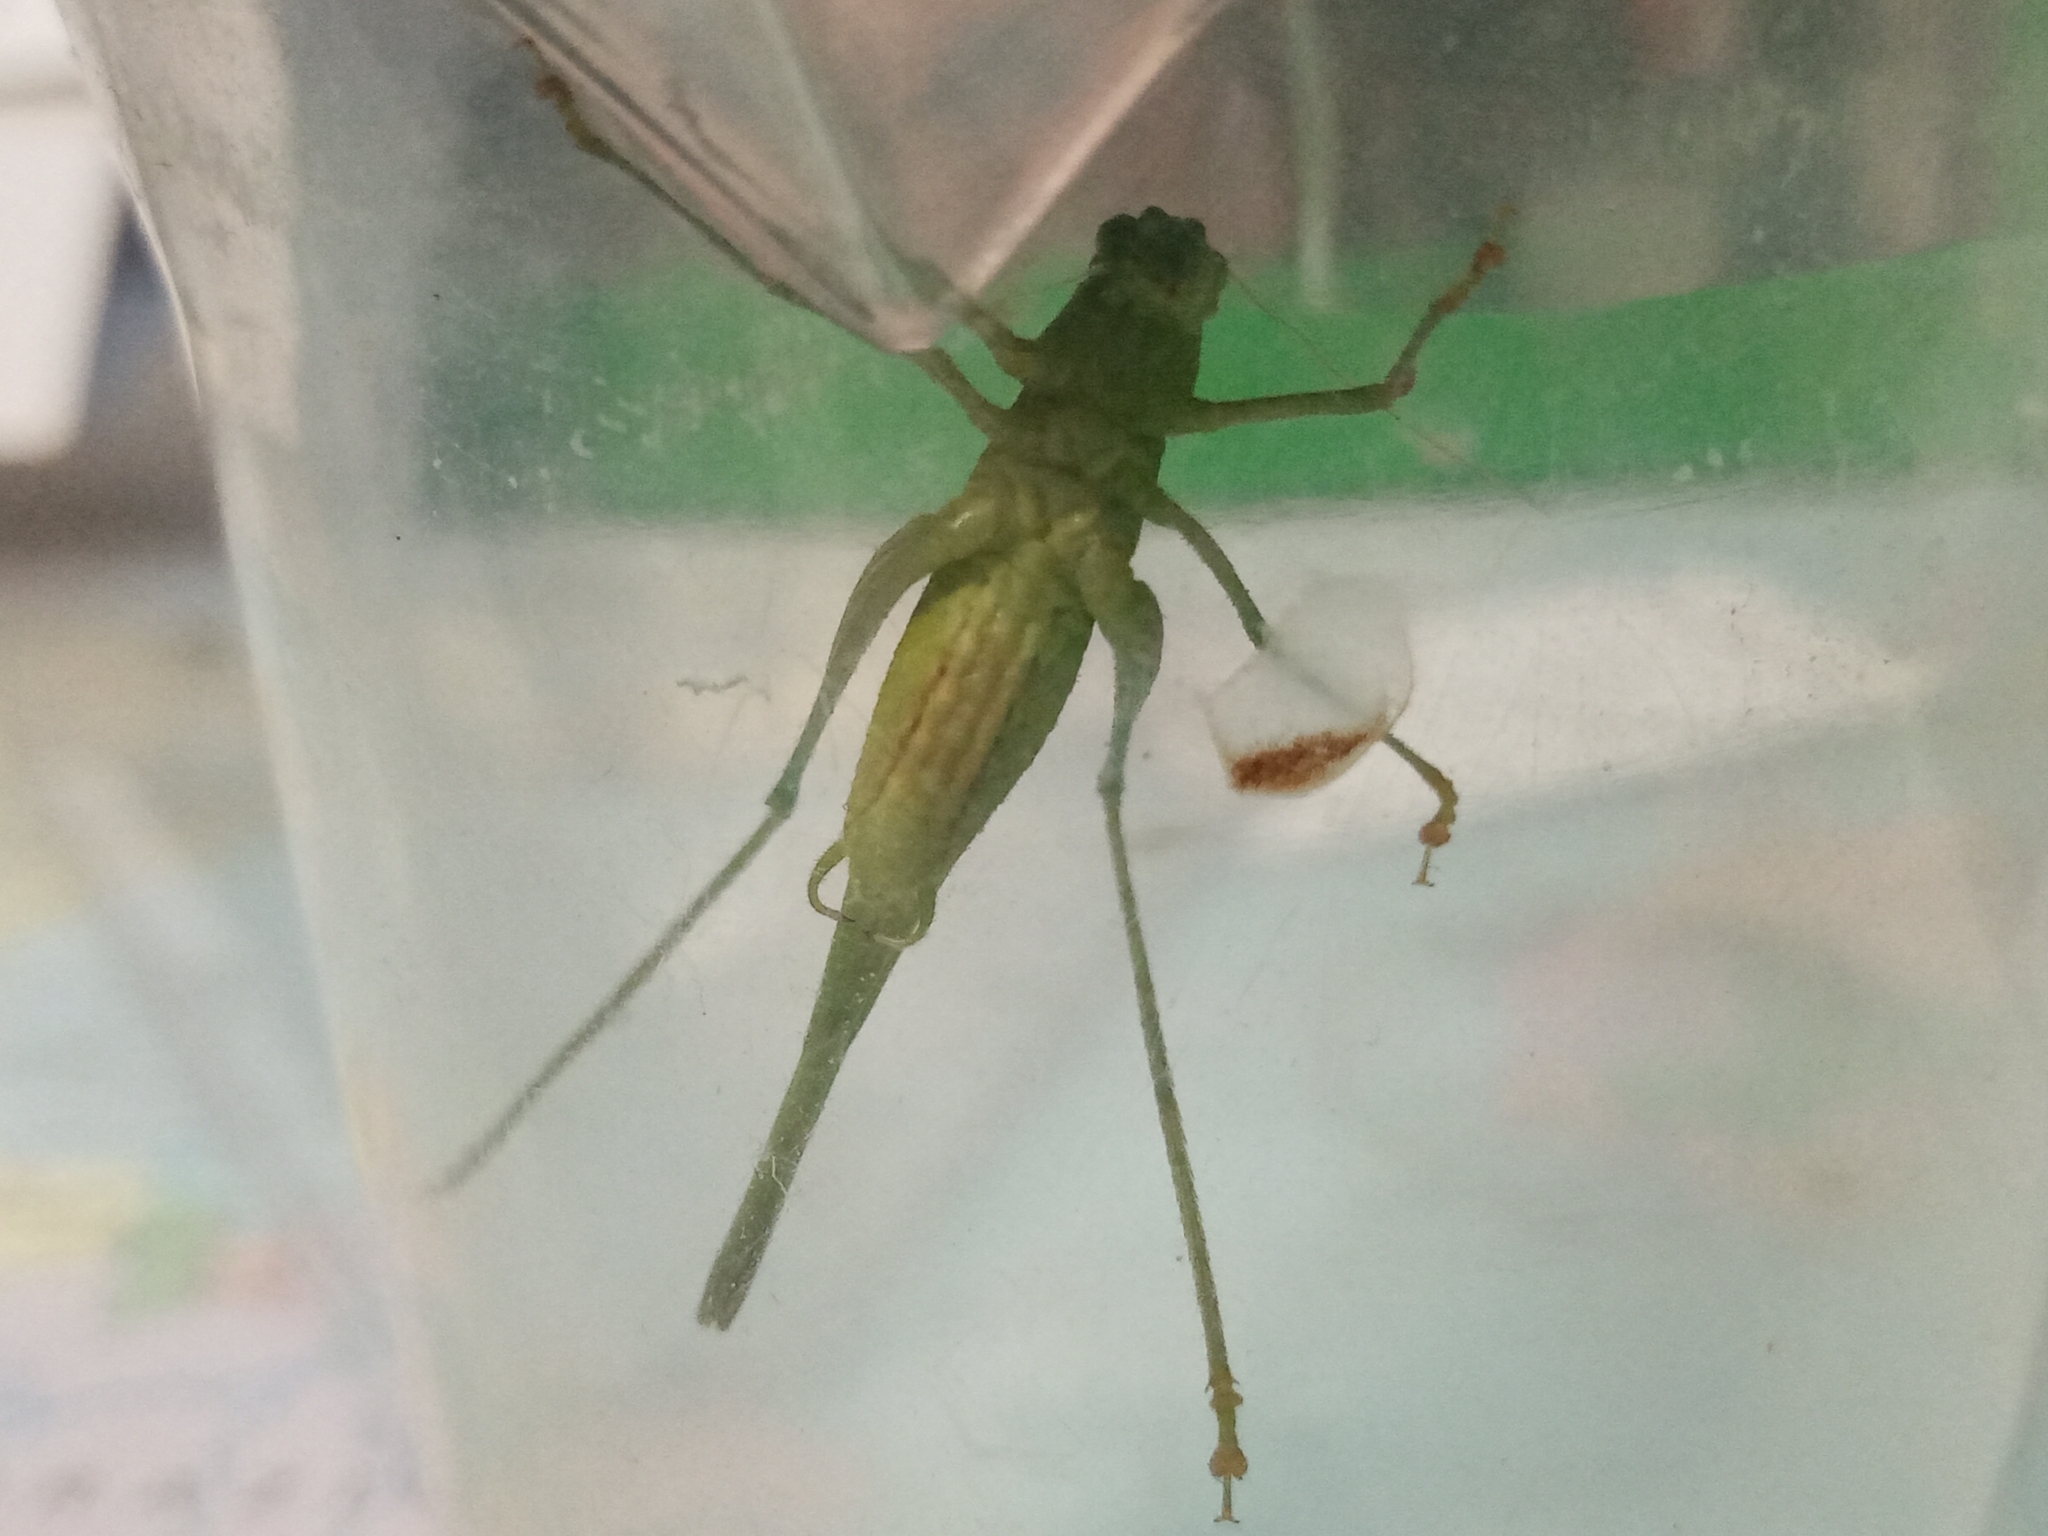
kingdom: Animalia
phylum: Arthropoda
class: Insecta
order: Orthoptera
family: Tettigoniidae
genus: Phaneroptera
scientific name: Phaneroptera nana
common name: Southern sickle bush-cricket
